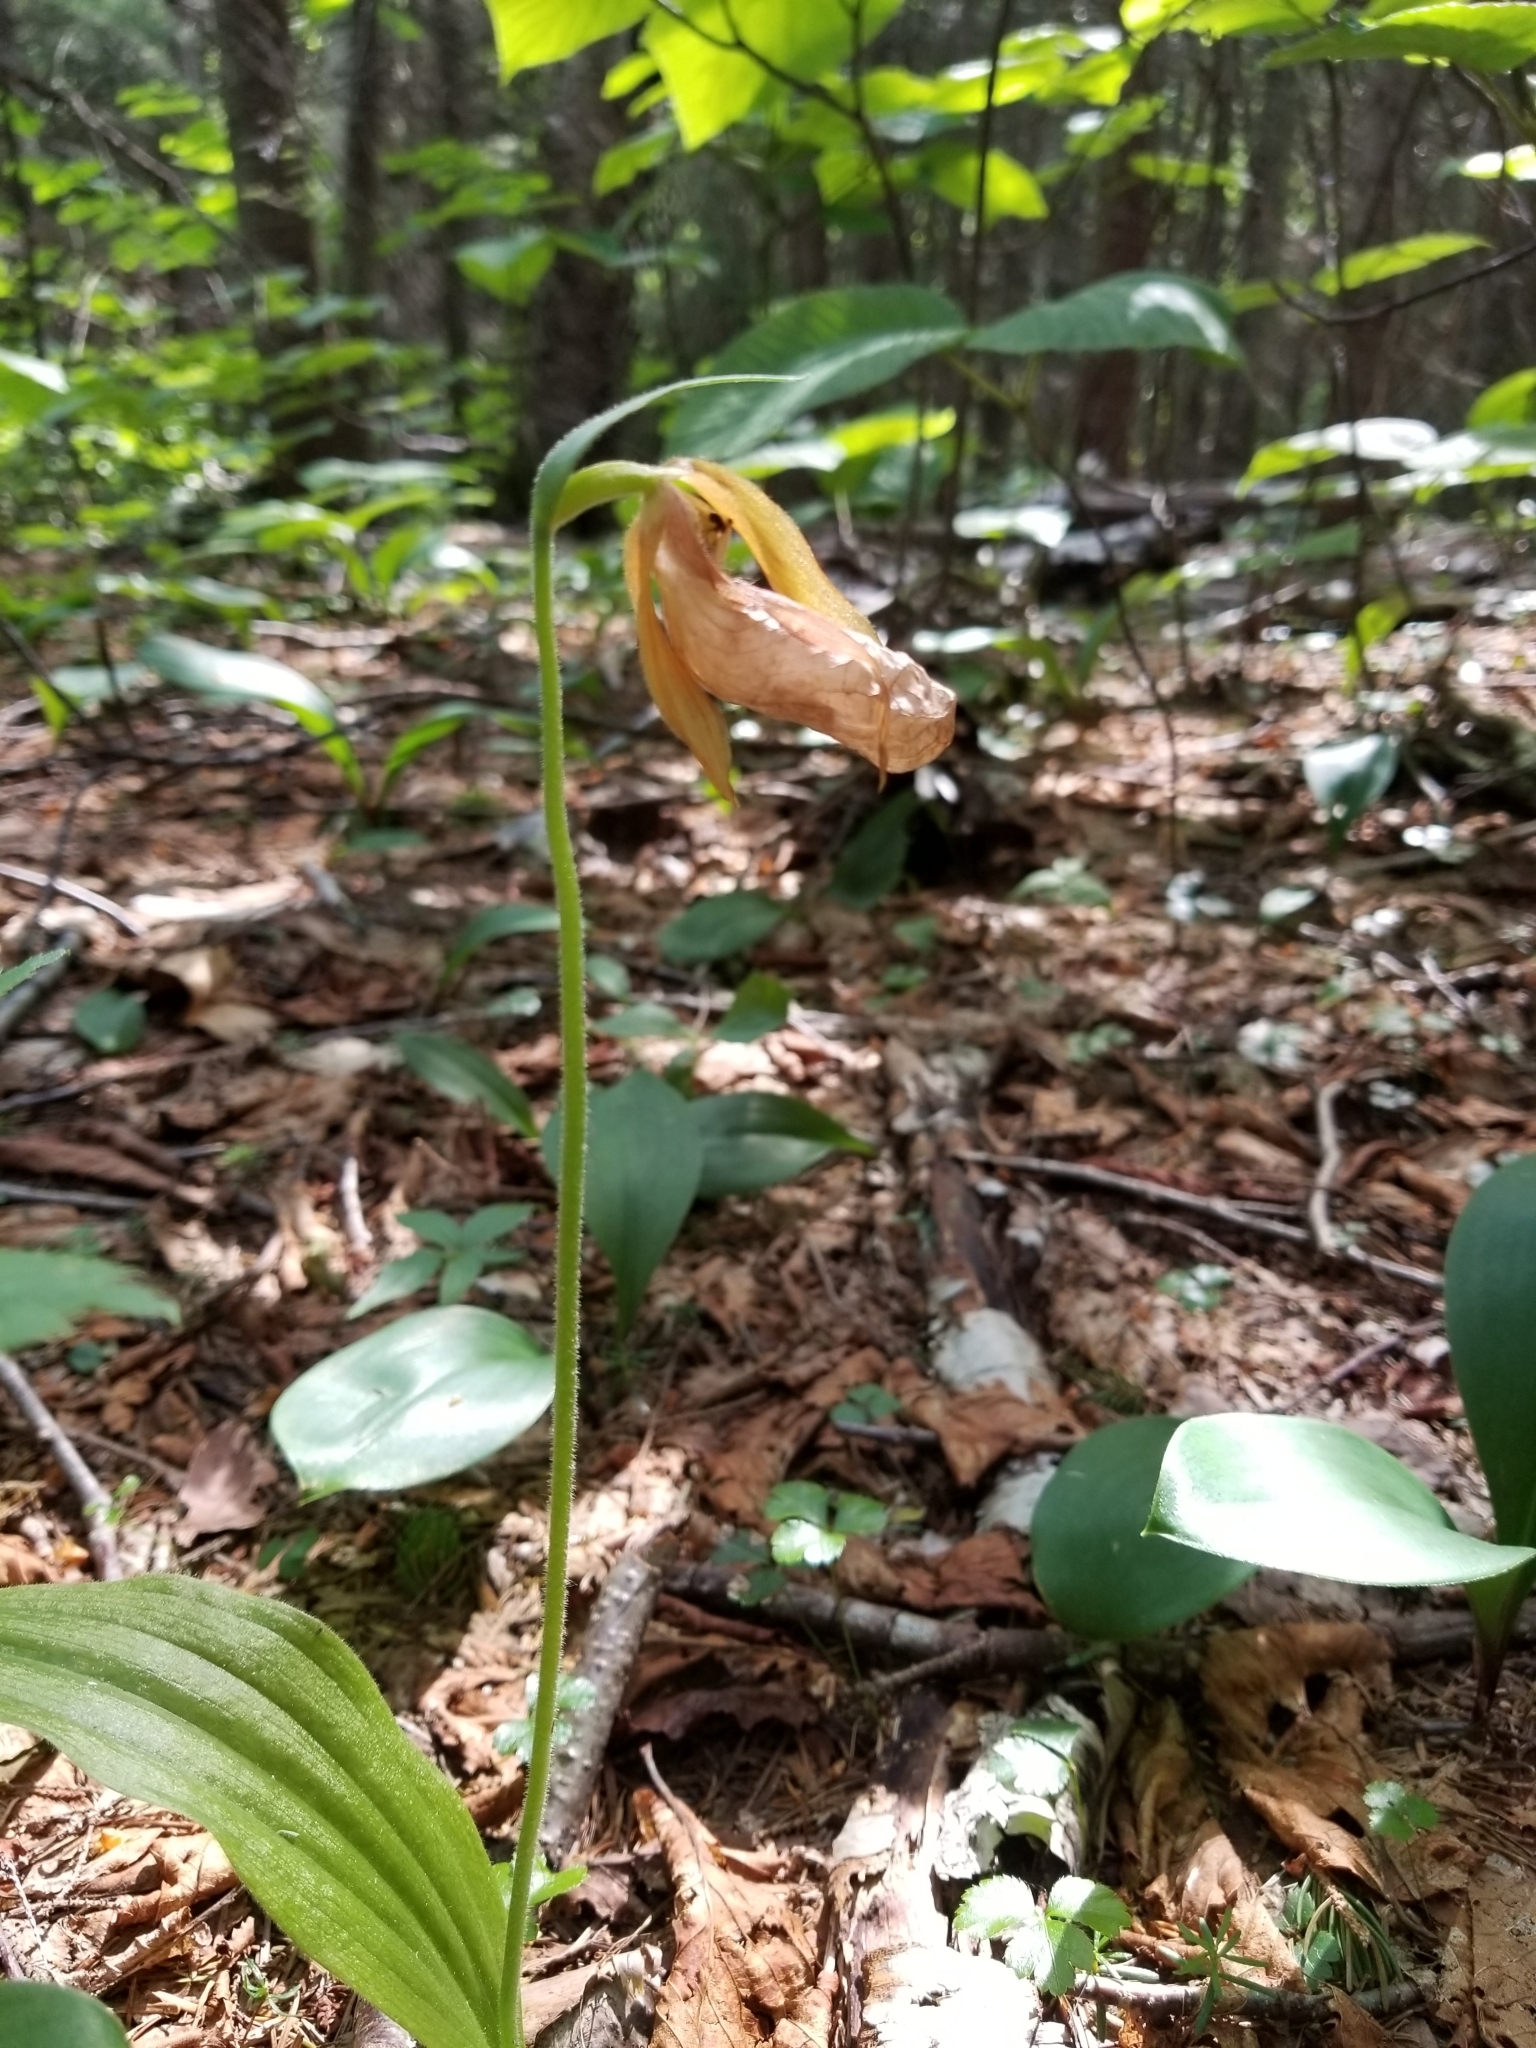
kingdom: Plantae
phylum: Tracheophyta
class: Liliopsida
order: Asparagales
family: Orchidaceae
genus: Cypripedium
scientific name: Cypripedium acaule
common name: Pink lady's-slipper
